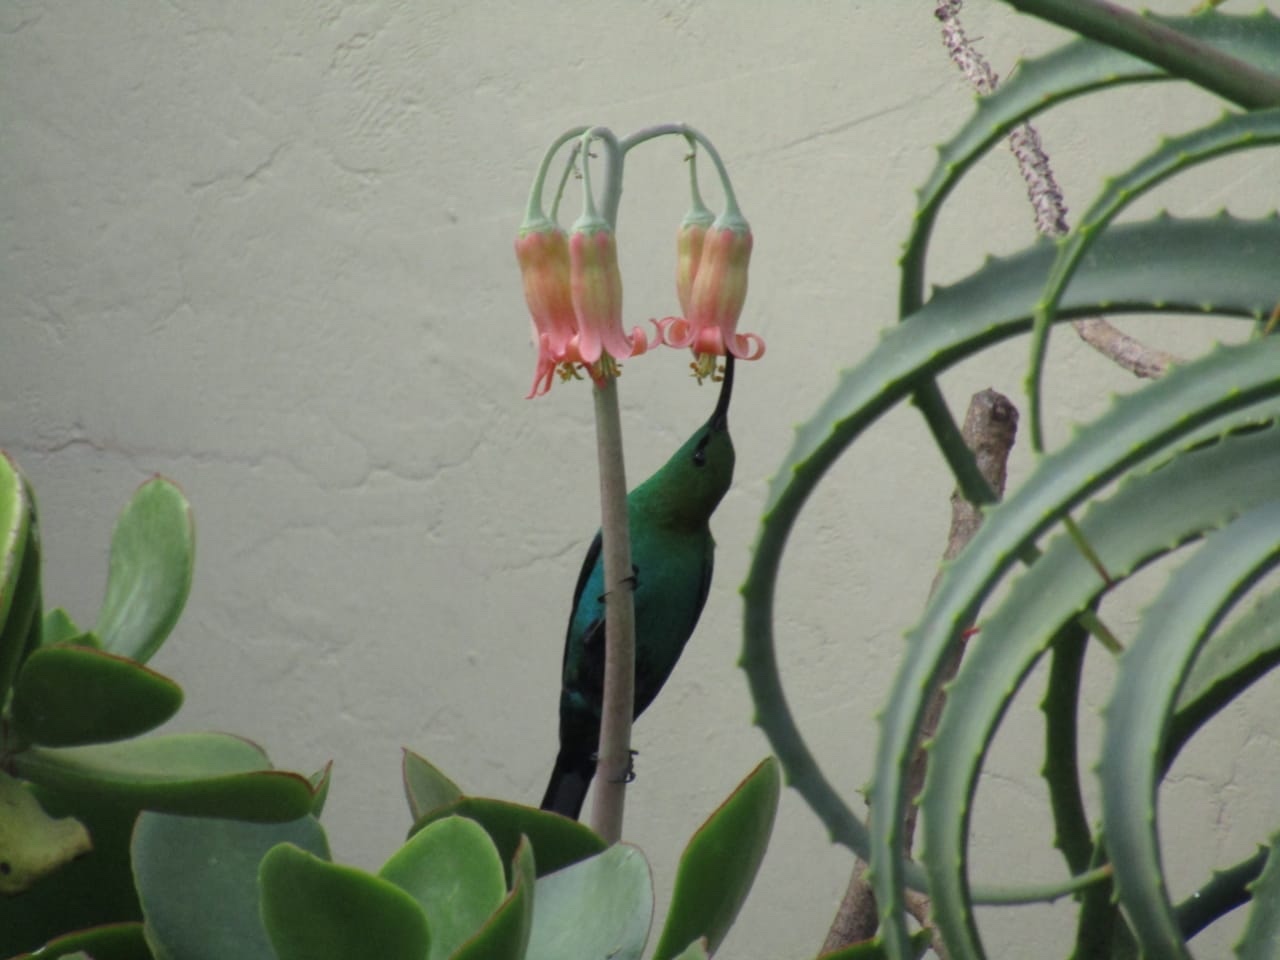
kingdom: Animalia
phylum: Chordata
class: Aves
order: Passeriformes
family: Nectariniidae
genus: Nectarinia
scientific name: Nectarinia famosa
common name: Malachite sunbird
